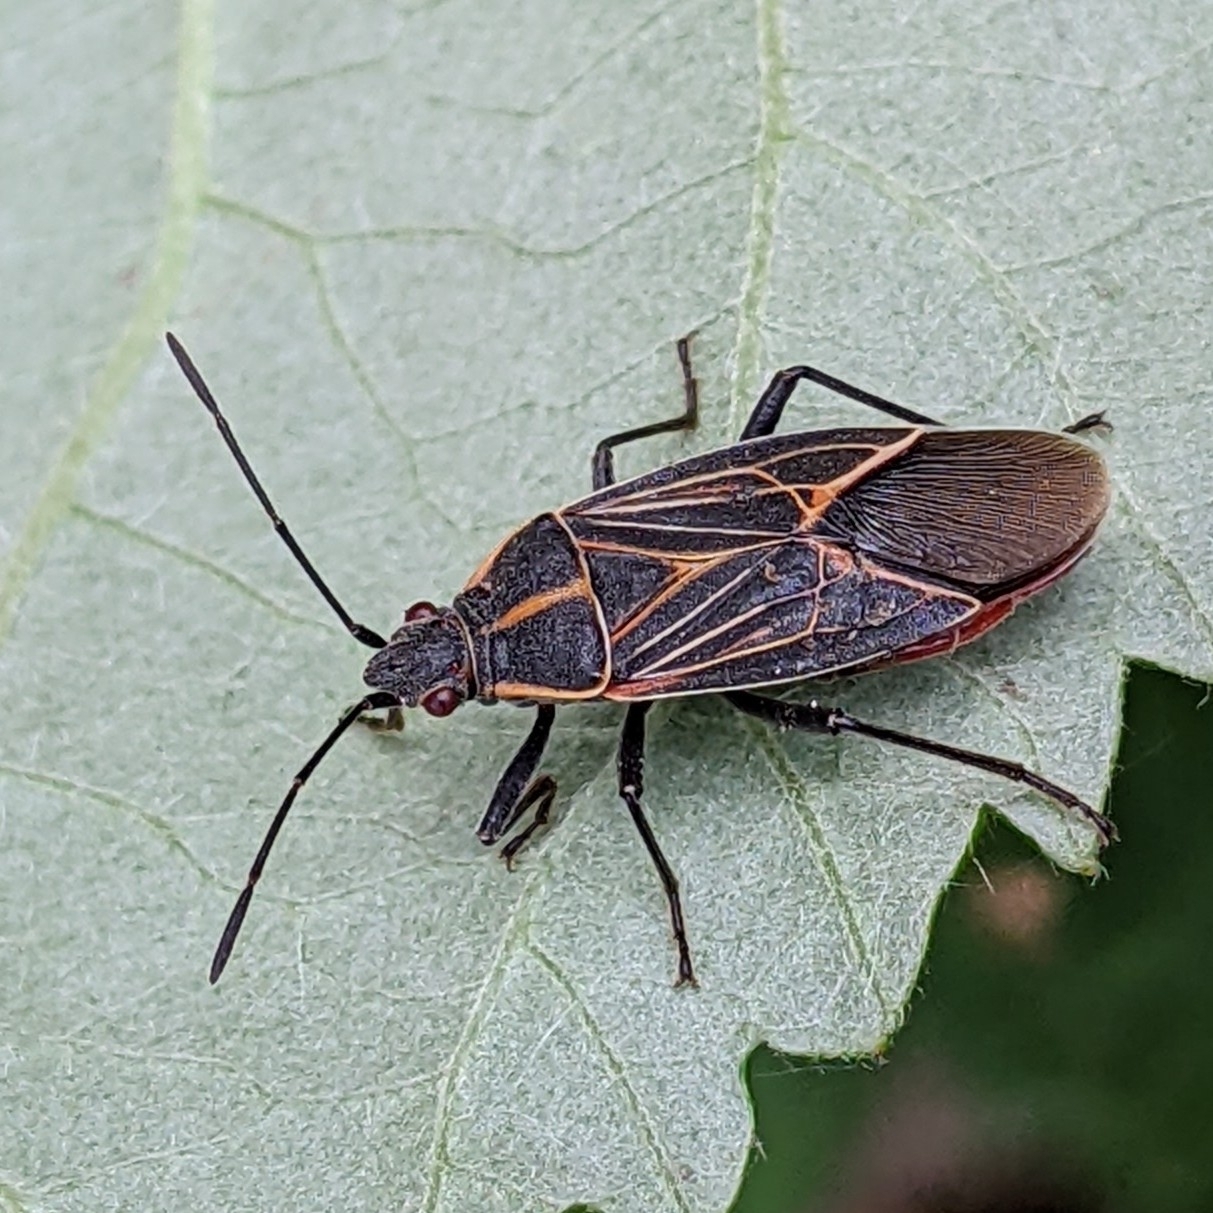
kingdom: Animalia
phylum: Arthropoda
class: Insecta
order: Hemiptera
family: Rhopalidae
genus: Boisea
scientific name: Boisea rubrolineata
